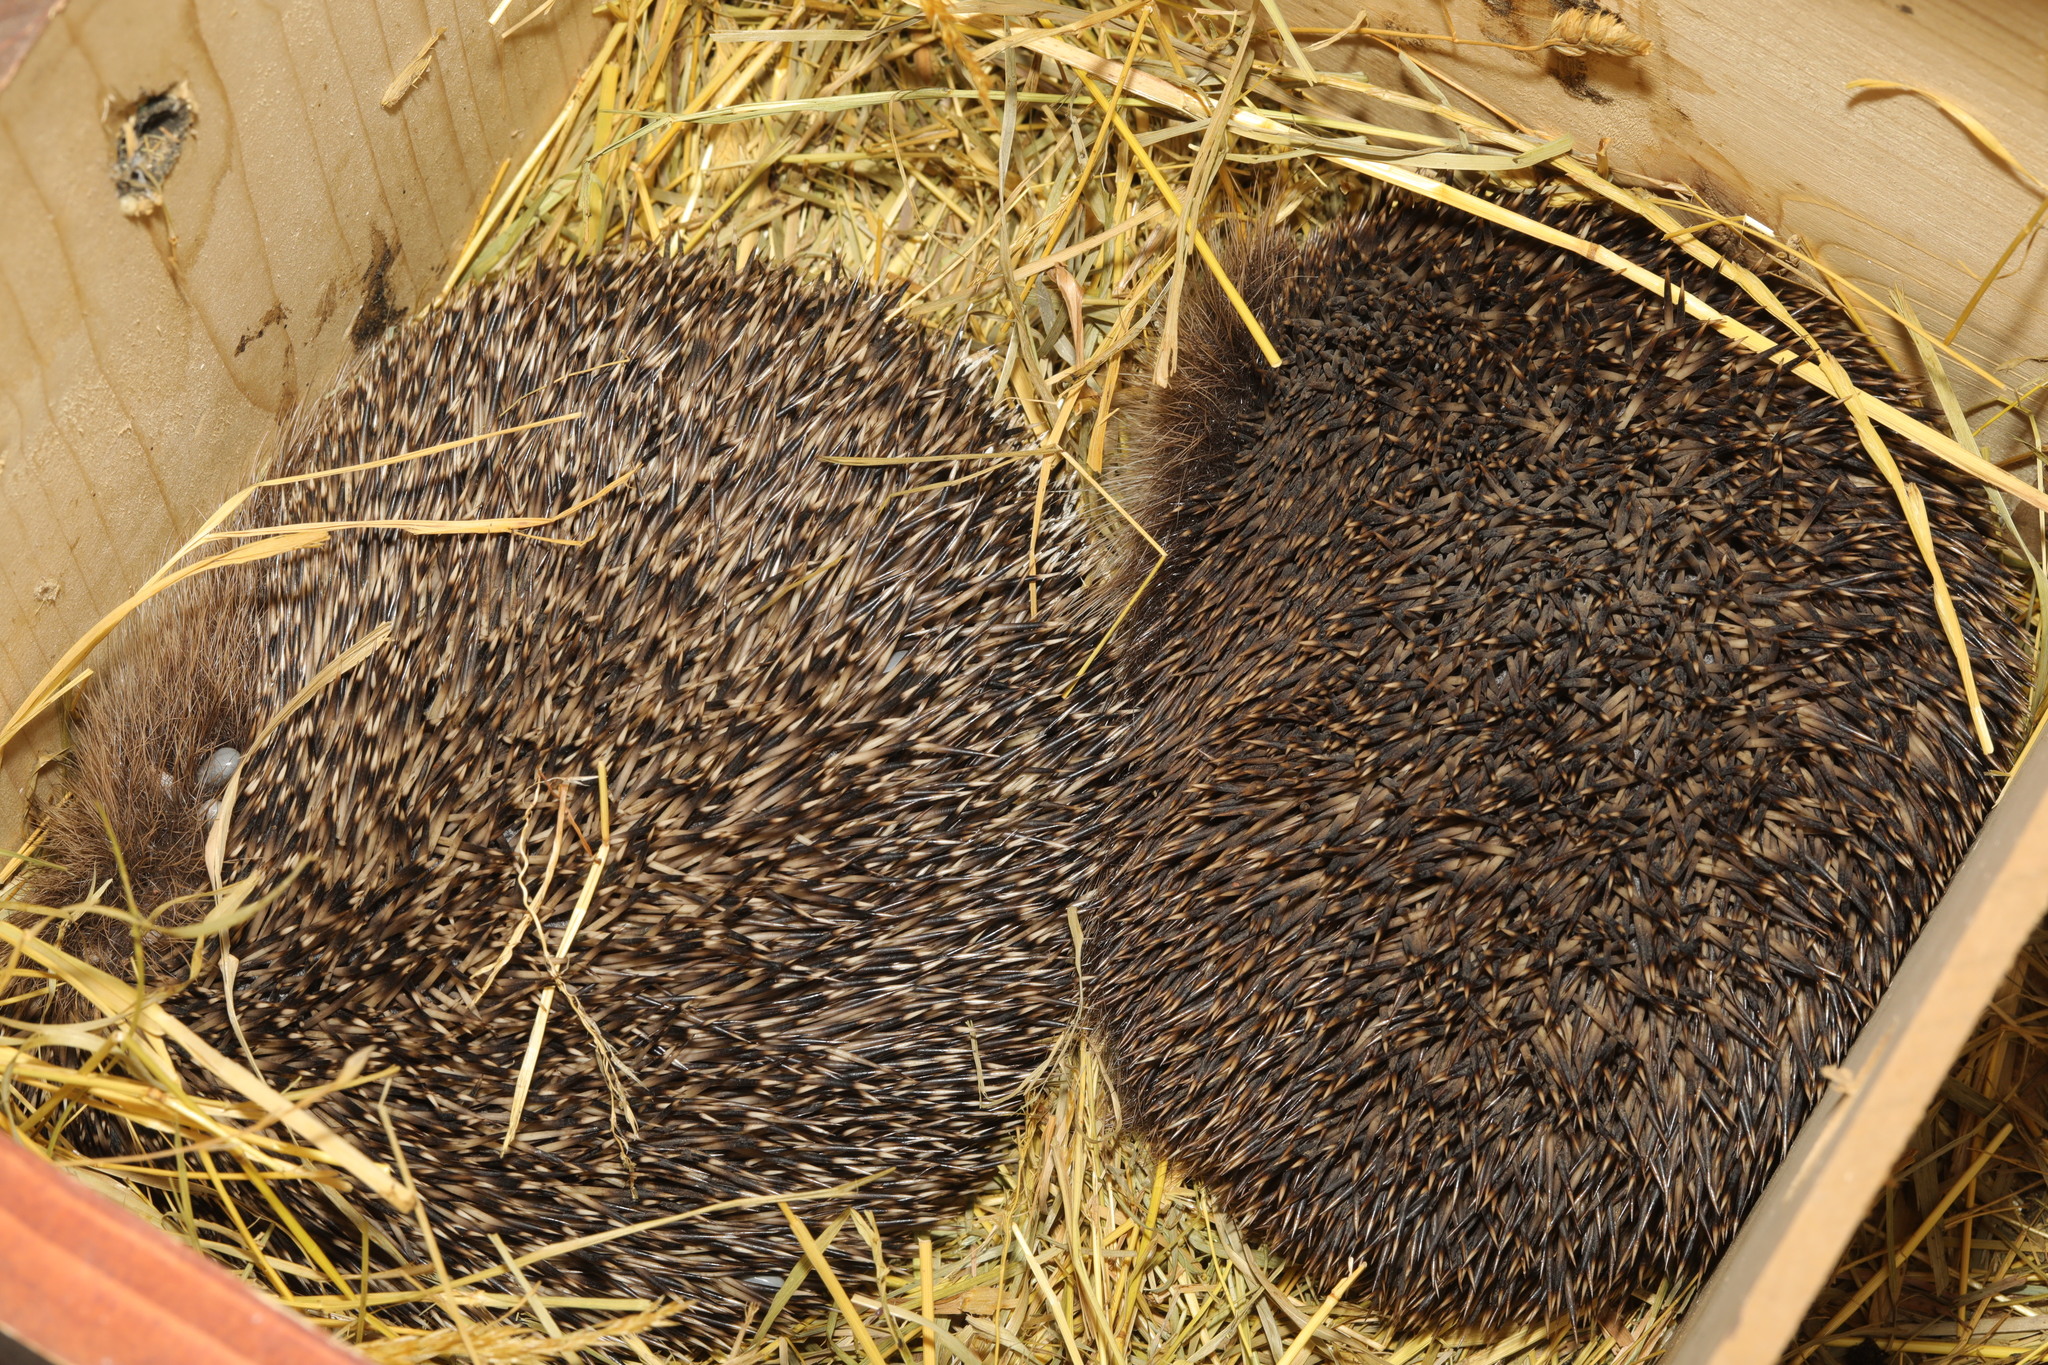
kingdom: Animalia
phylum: Chordata
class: Mammalia
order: Erinaceomorpha
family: Erinaceidae
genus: Erinaceus
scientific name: Erinaceus europaeus
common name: West european hedgehog
